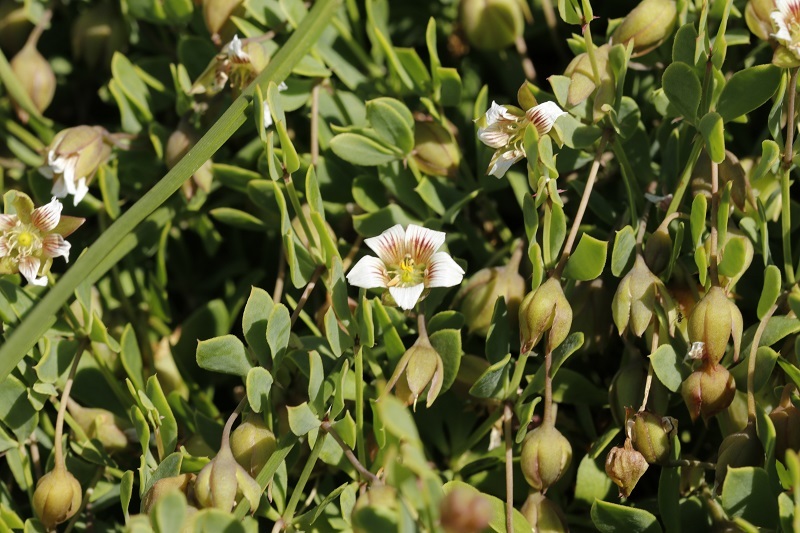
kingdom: Plantae
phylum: Tracheophyta
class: Magnoliopsida
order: Zygophyllales
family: Zygophyllaceae
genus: Roepera
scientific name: Roepera sessilifolia
